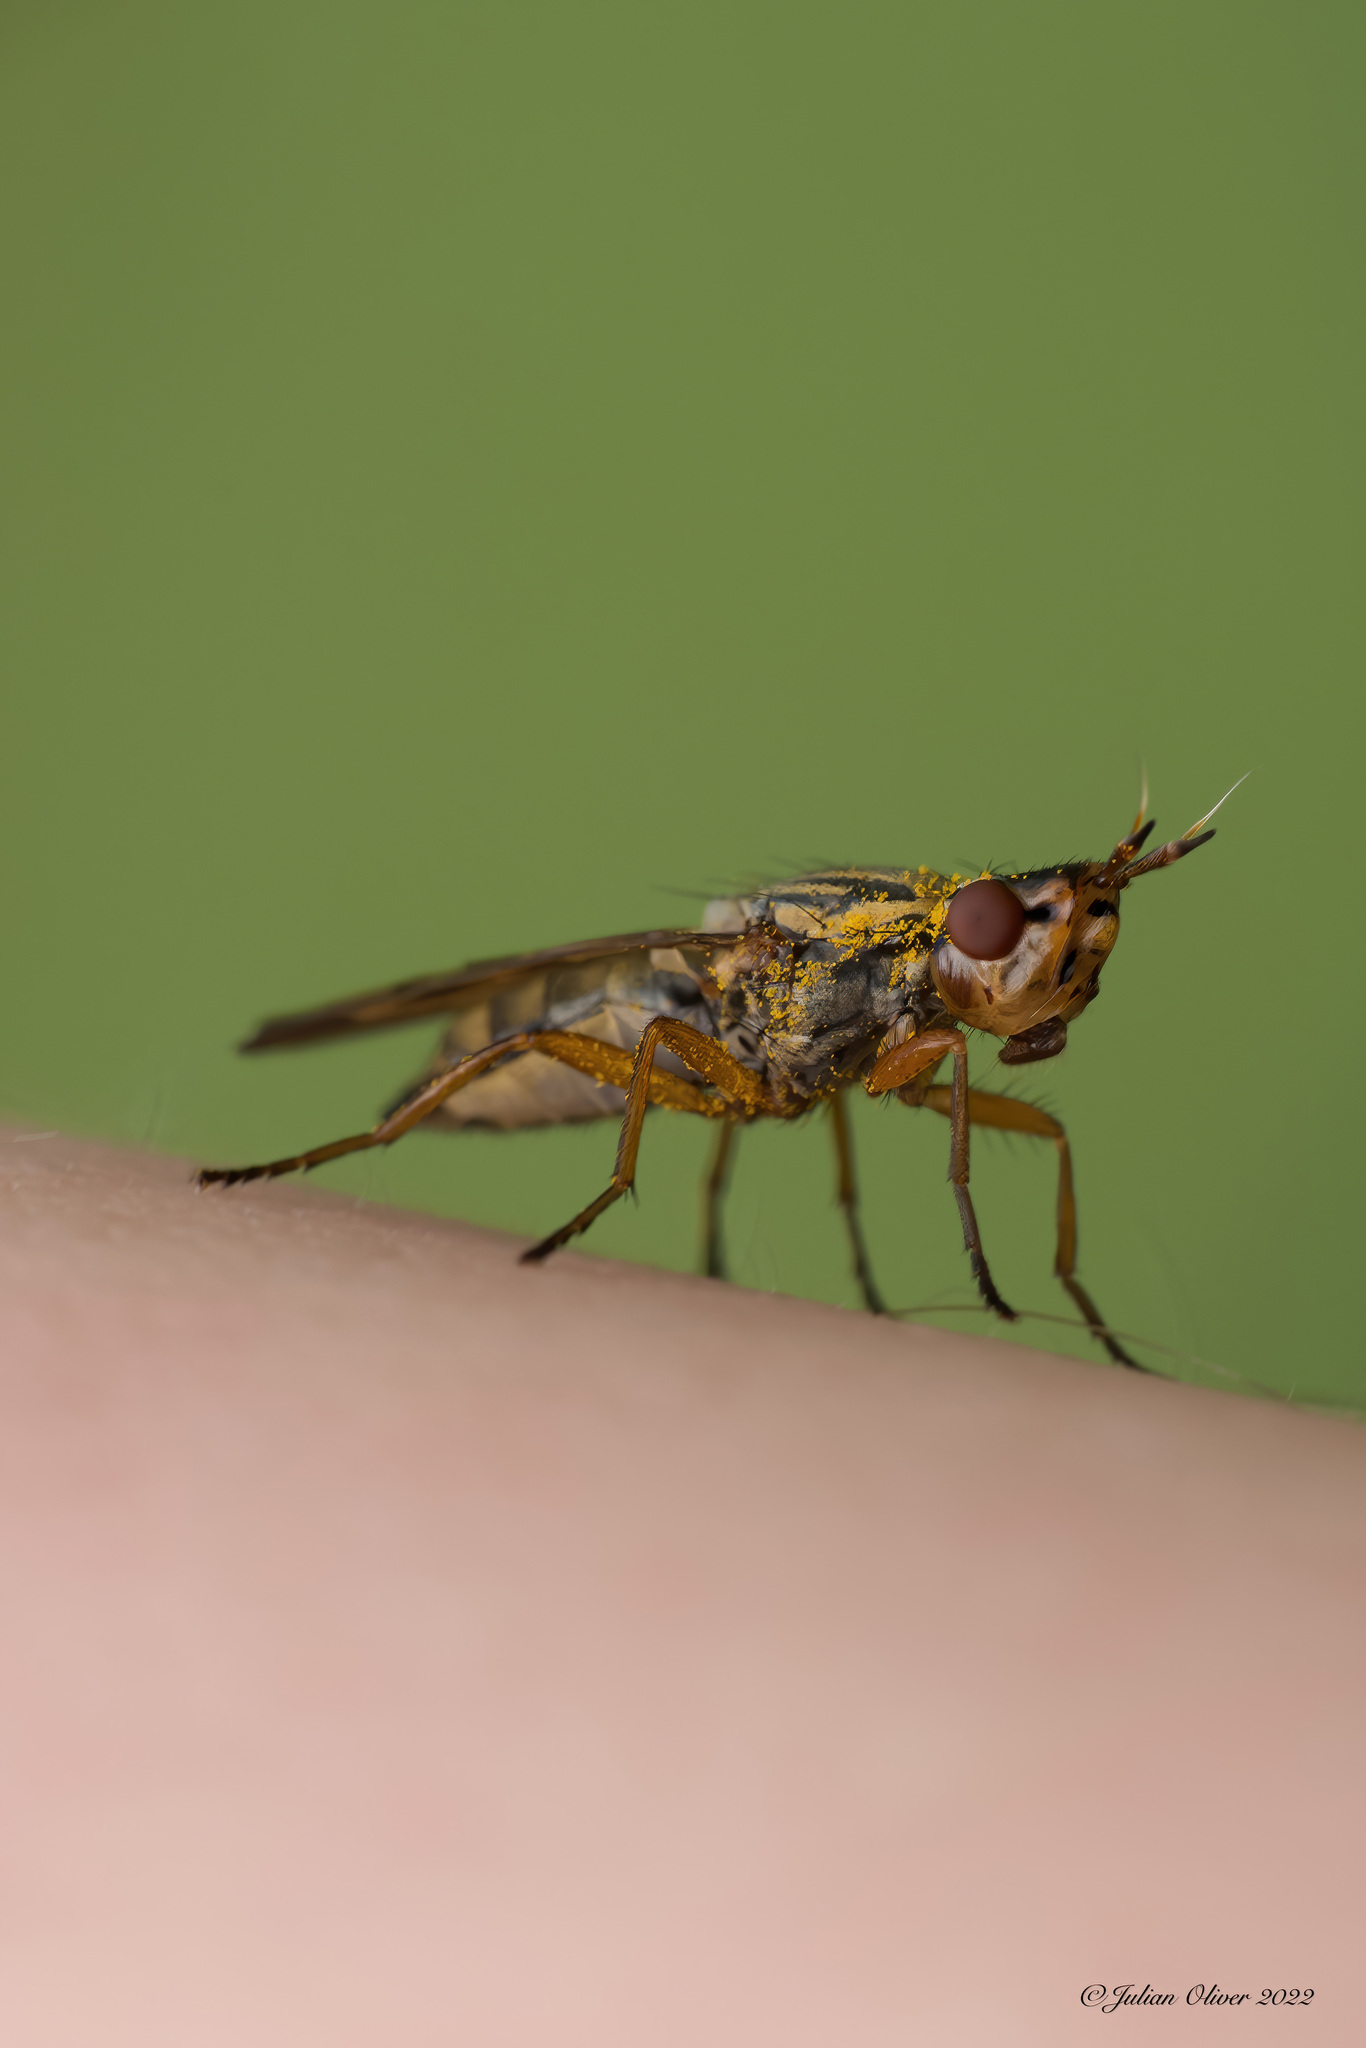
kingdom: Animalia
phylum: Arthropoda
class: Insecta
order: Diptera
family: Ulidiidae
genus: Dorycera
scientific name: Dorycera aquatica
